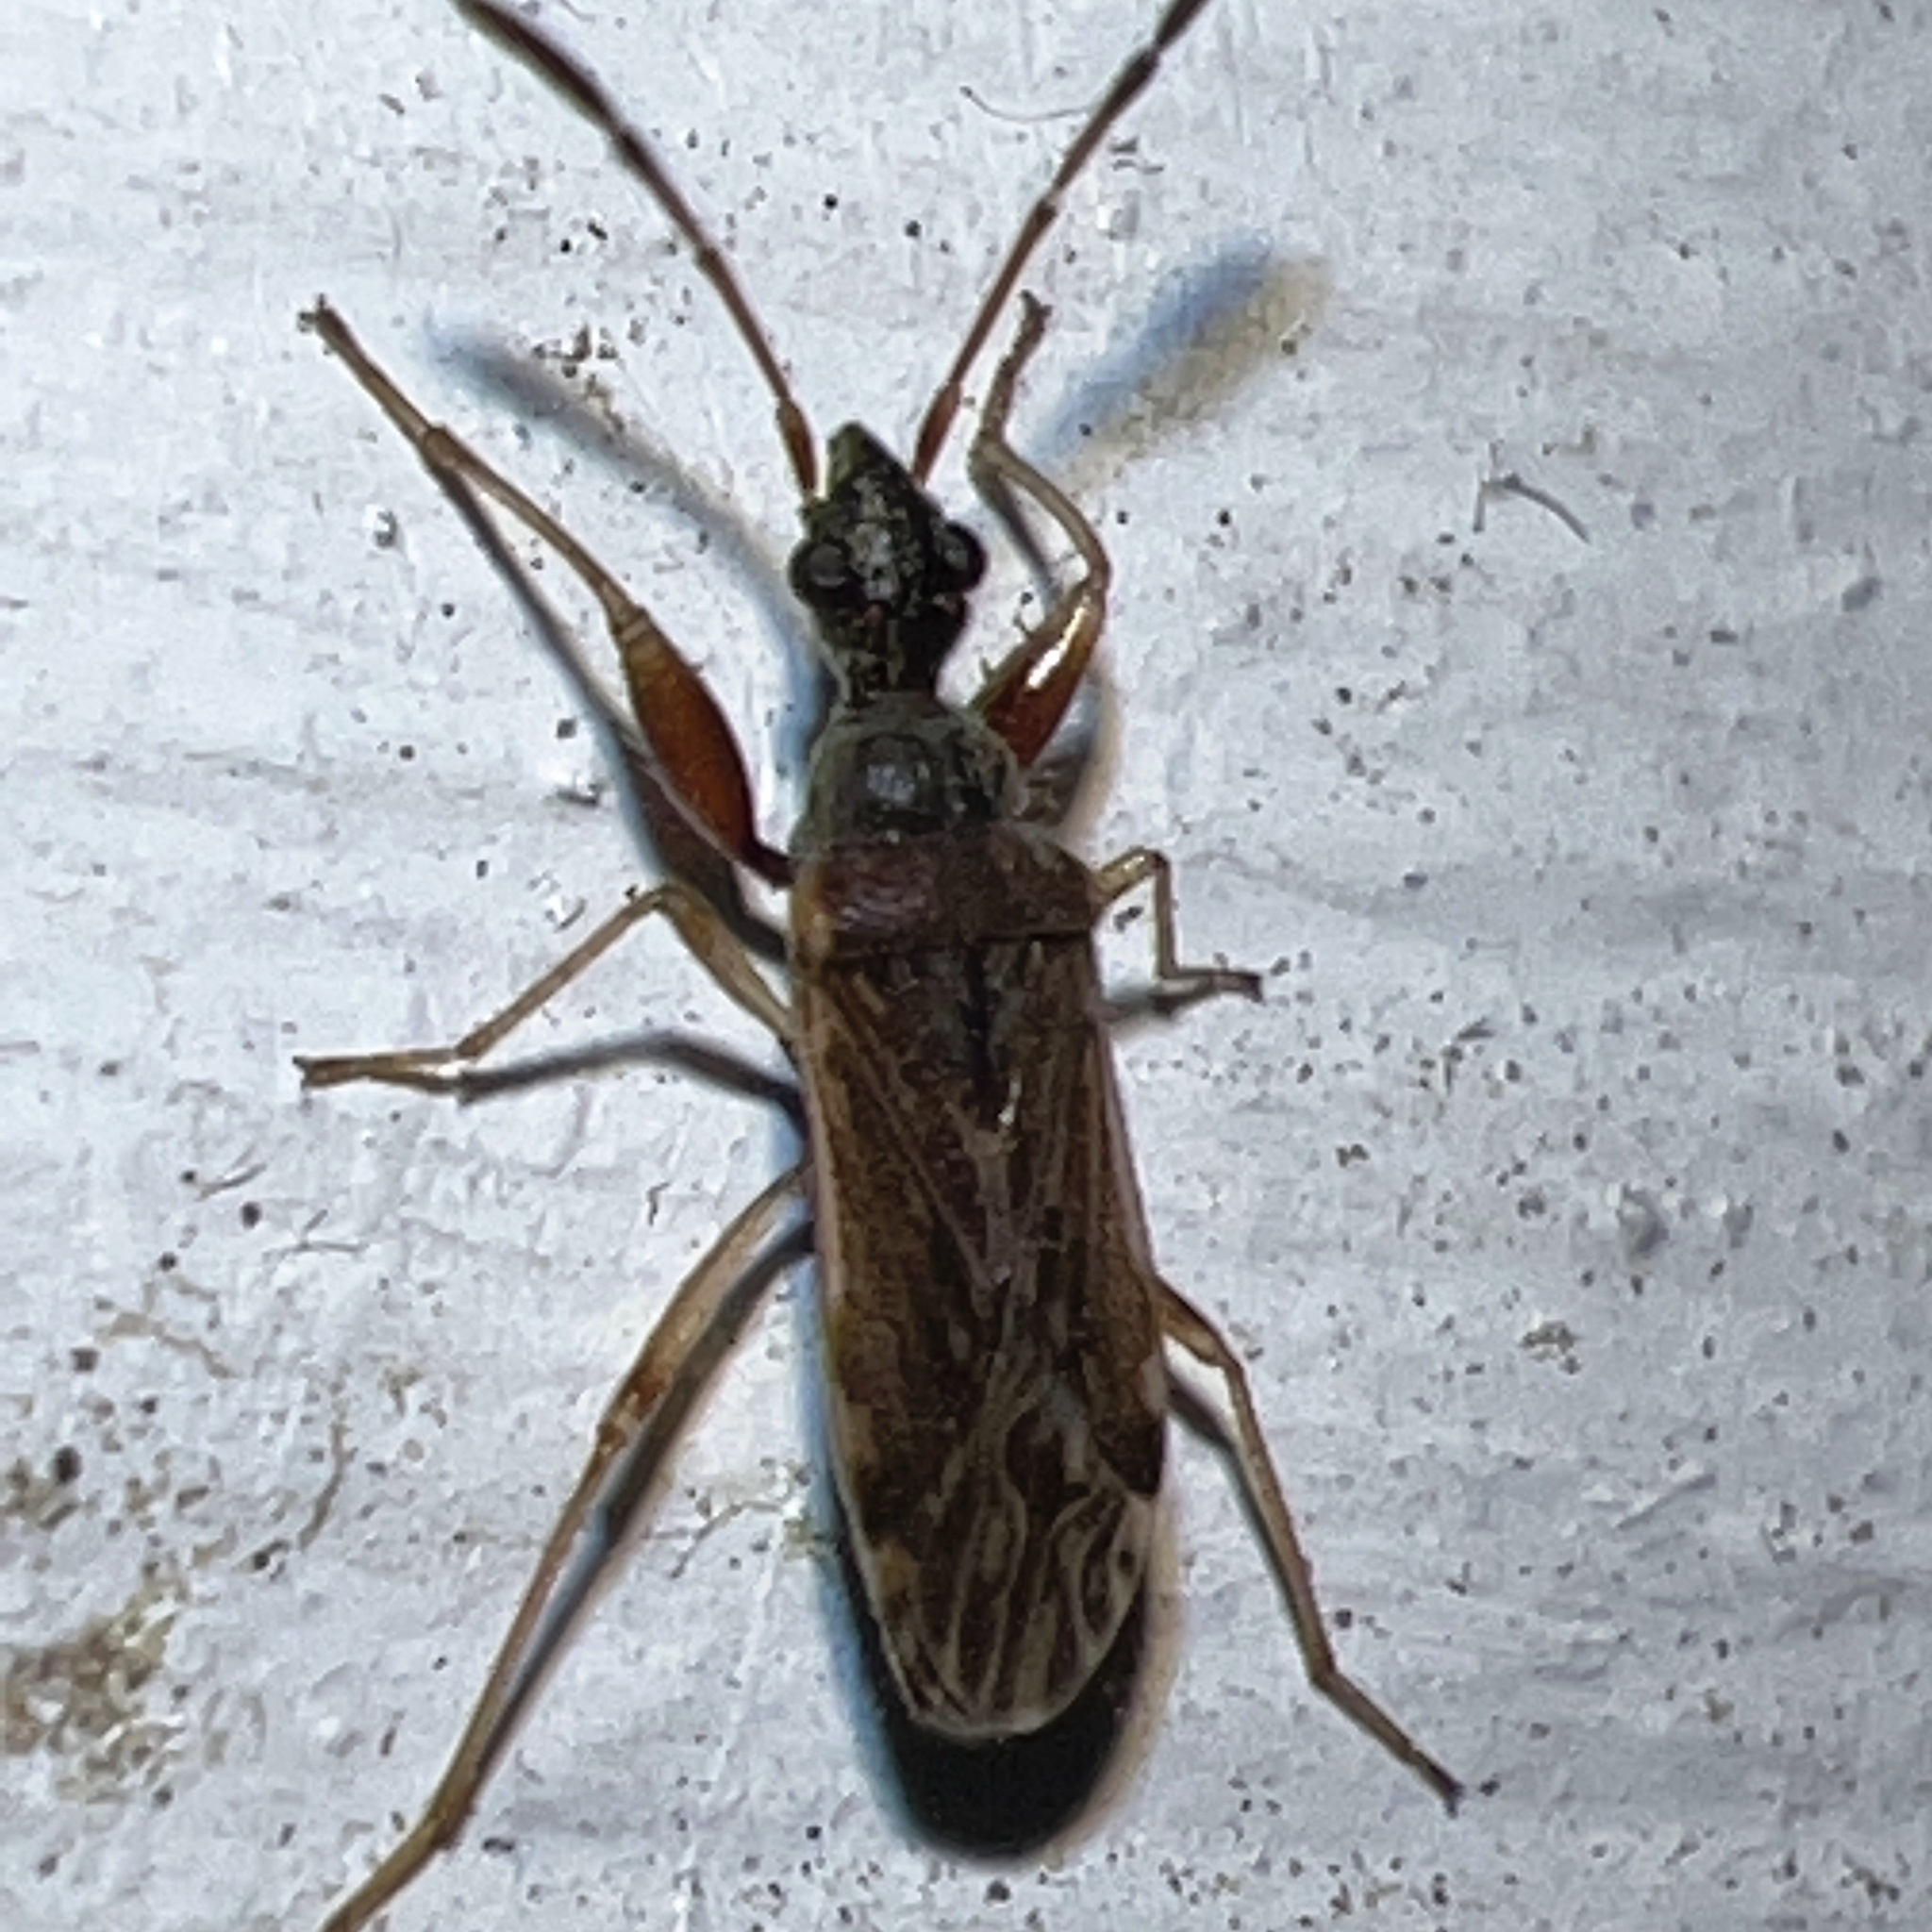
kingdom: Animalia
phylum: Arthropoda
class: Insecta
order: Hemiptera
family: Rhyparochromidae
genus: Heraeus
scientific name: Heraeus plebejus
